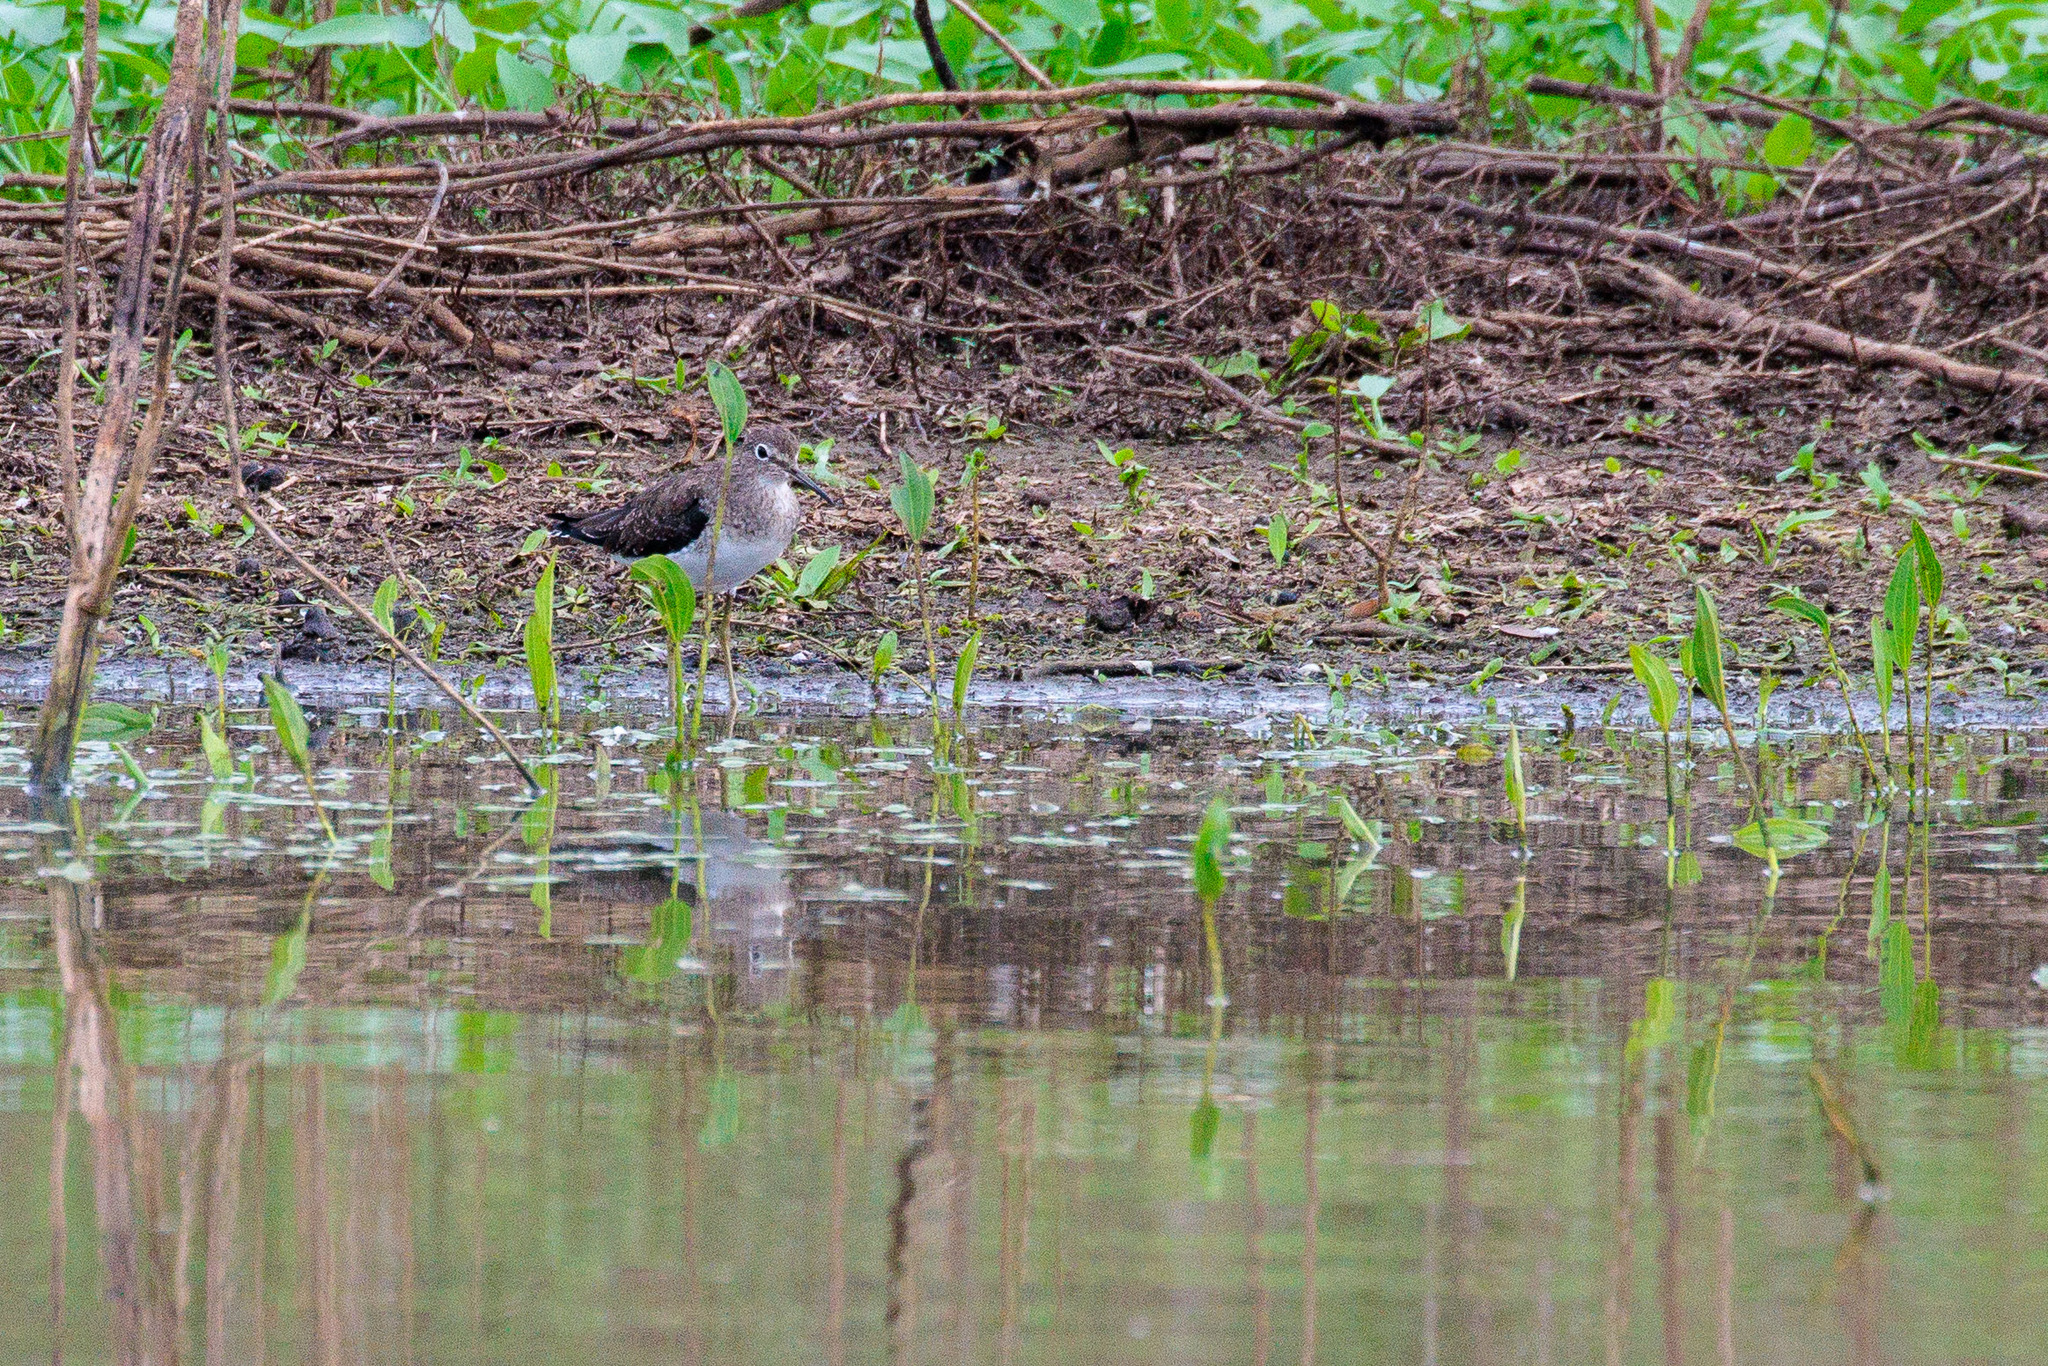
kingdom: Animalia
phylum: Chordata
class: Aves
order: Charadriiformes
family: Scolopacidae
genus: Tringa
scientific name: Tringa solitaria
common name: Solitary sandpiper
